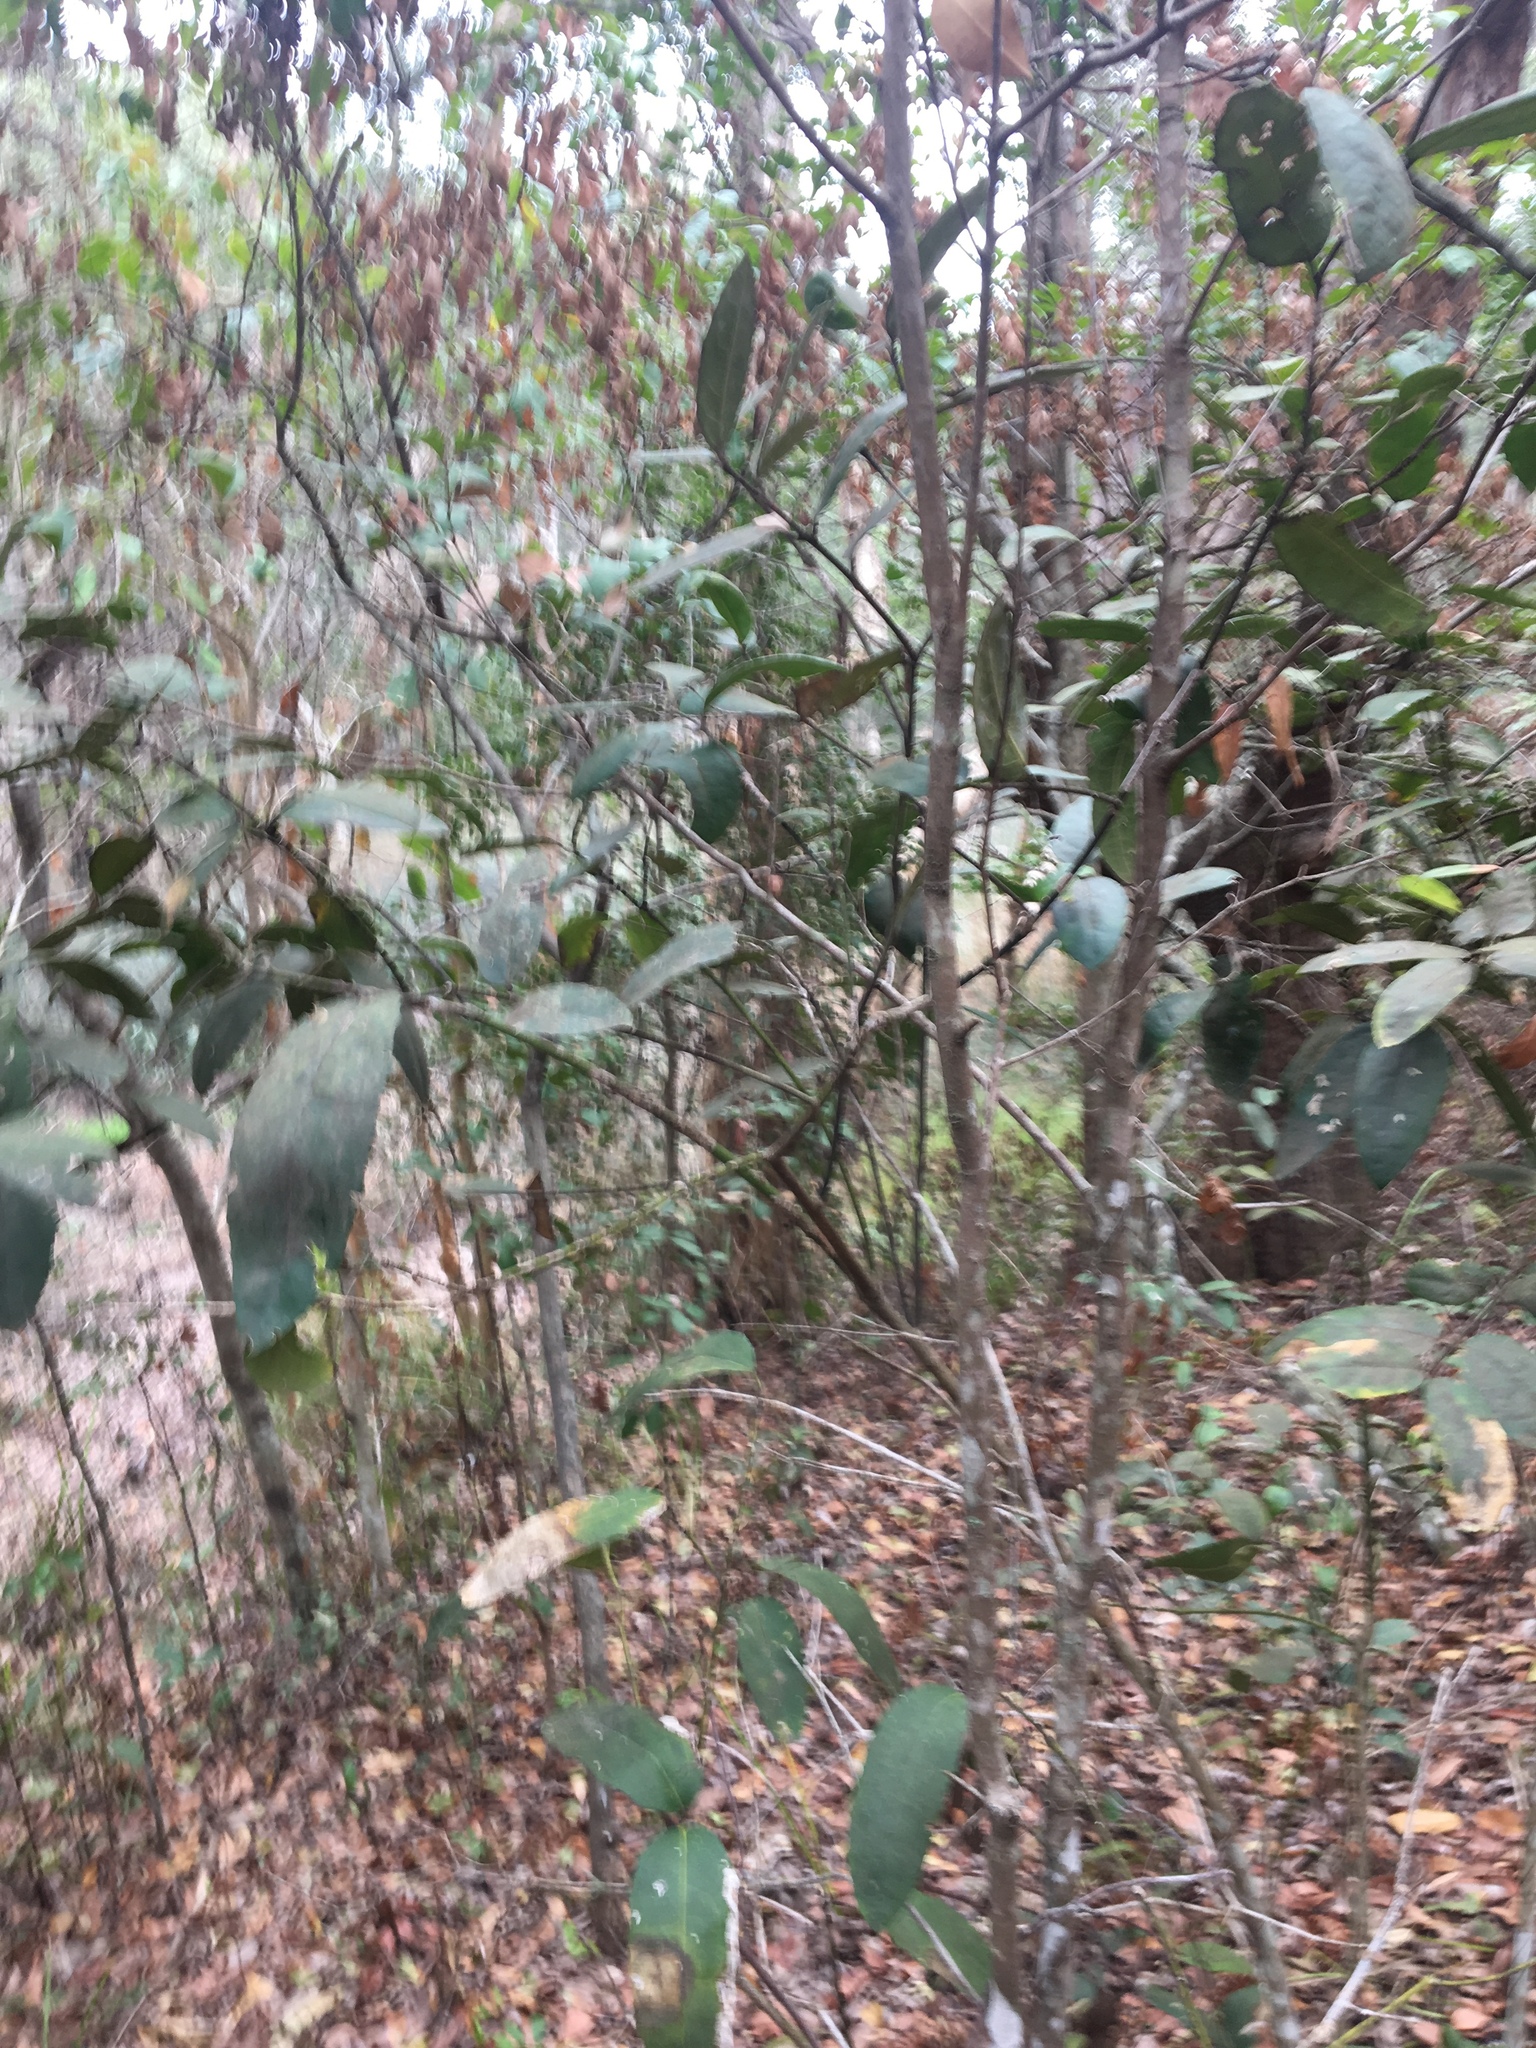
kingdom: Plantae
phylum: Tracheophyta
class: Magnoliopsida
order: Laurales
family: Monimiaceae
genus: Wilkiea
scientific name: Wilkiea hugeliana
